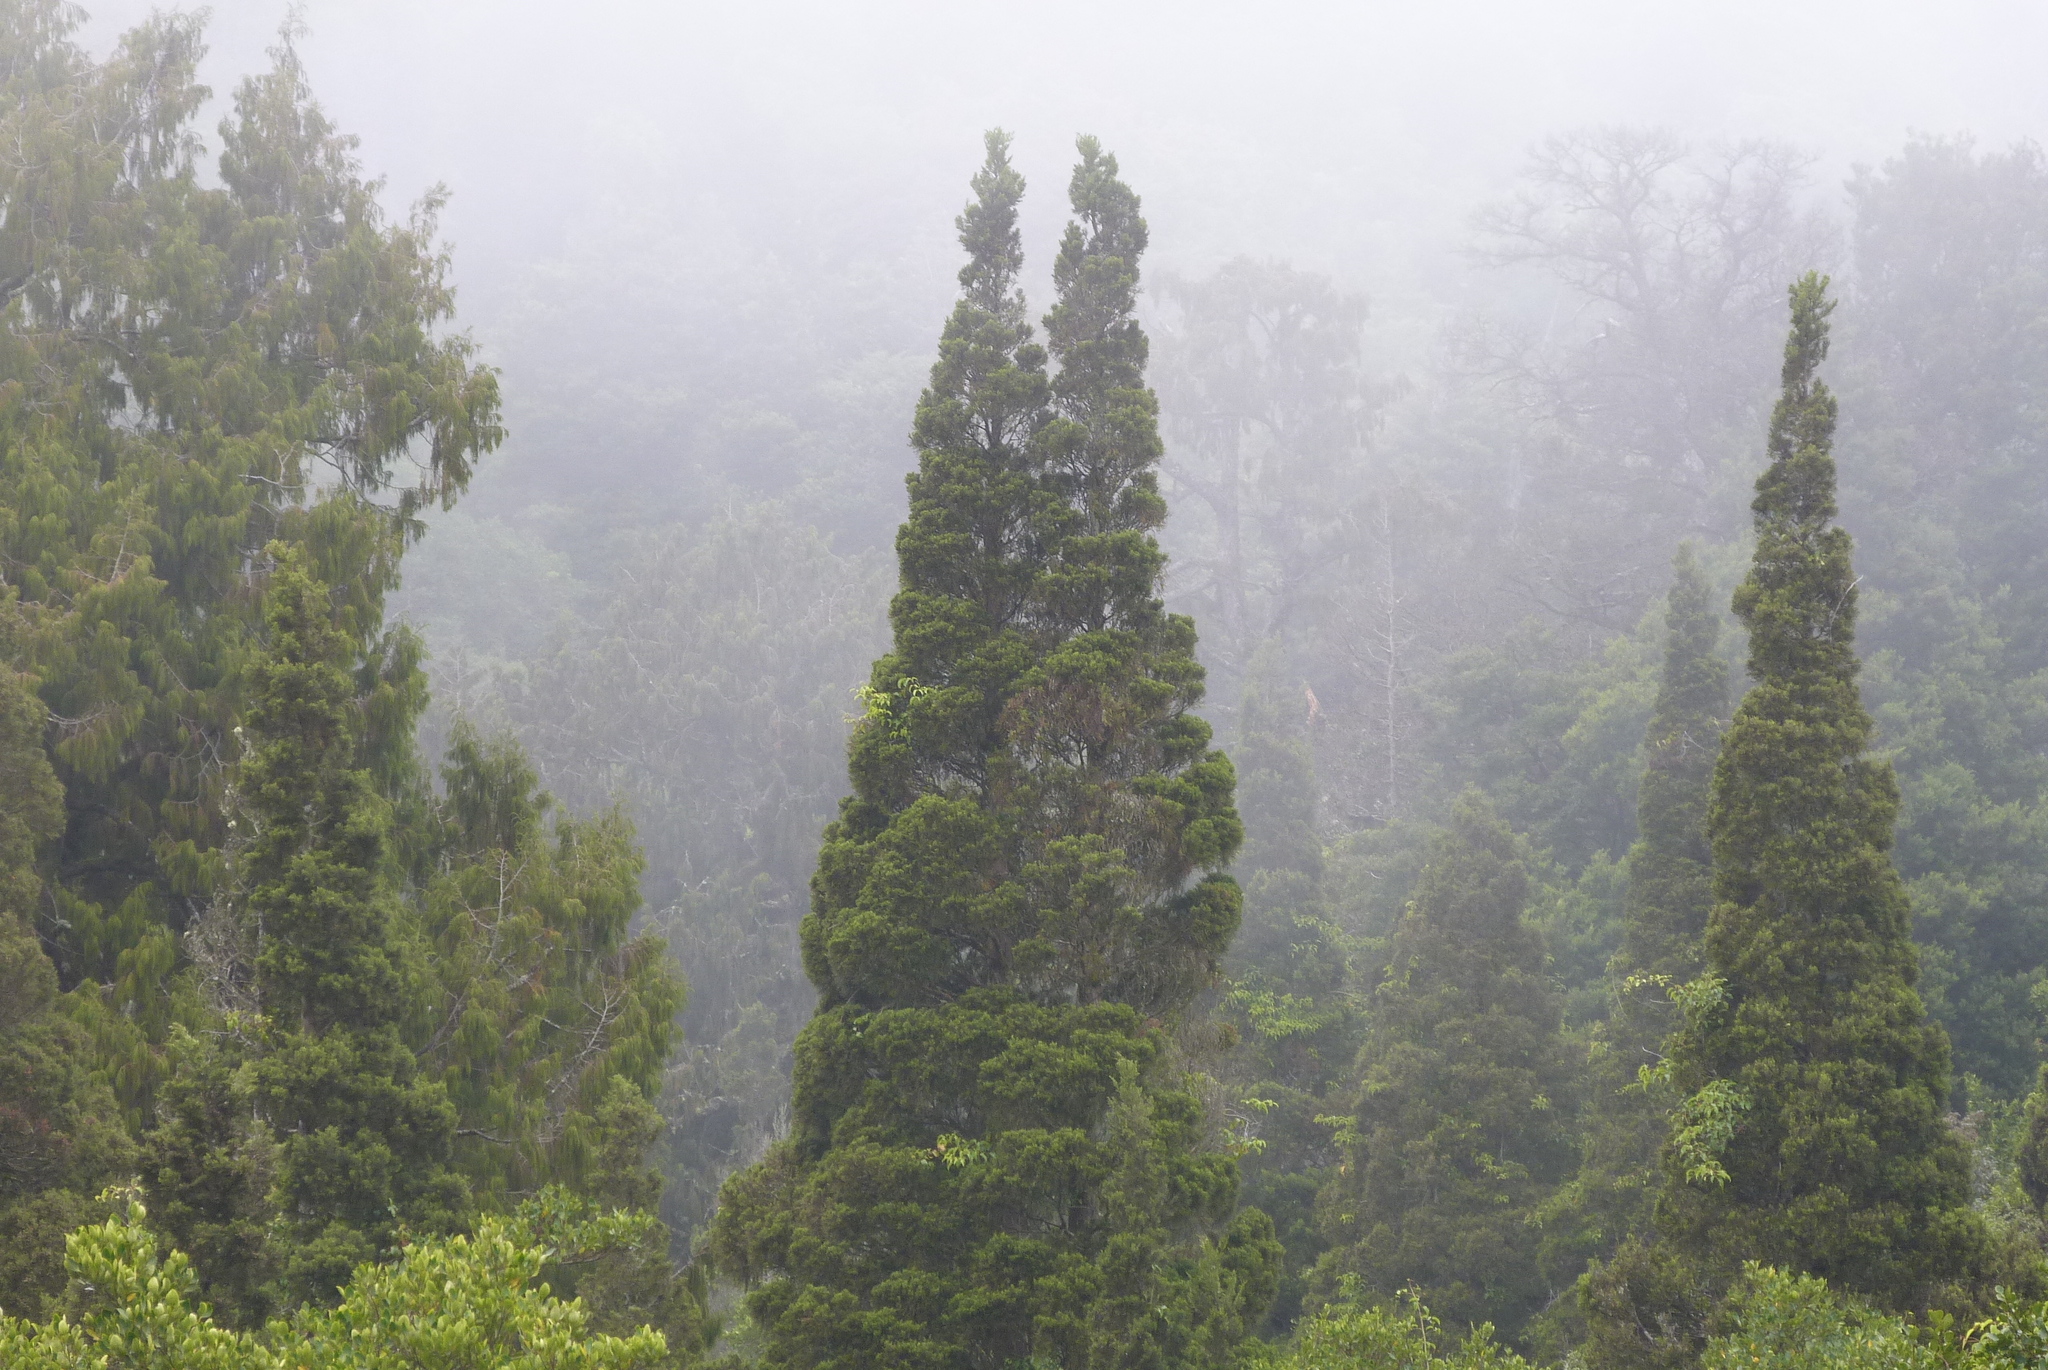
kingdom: Plantae
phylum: Tracheophyta
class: Pinopsida
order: Pinales
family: Cupressaceae
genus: Libocedrus
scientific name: Libocedrus bidwillii
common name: Cedar
